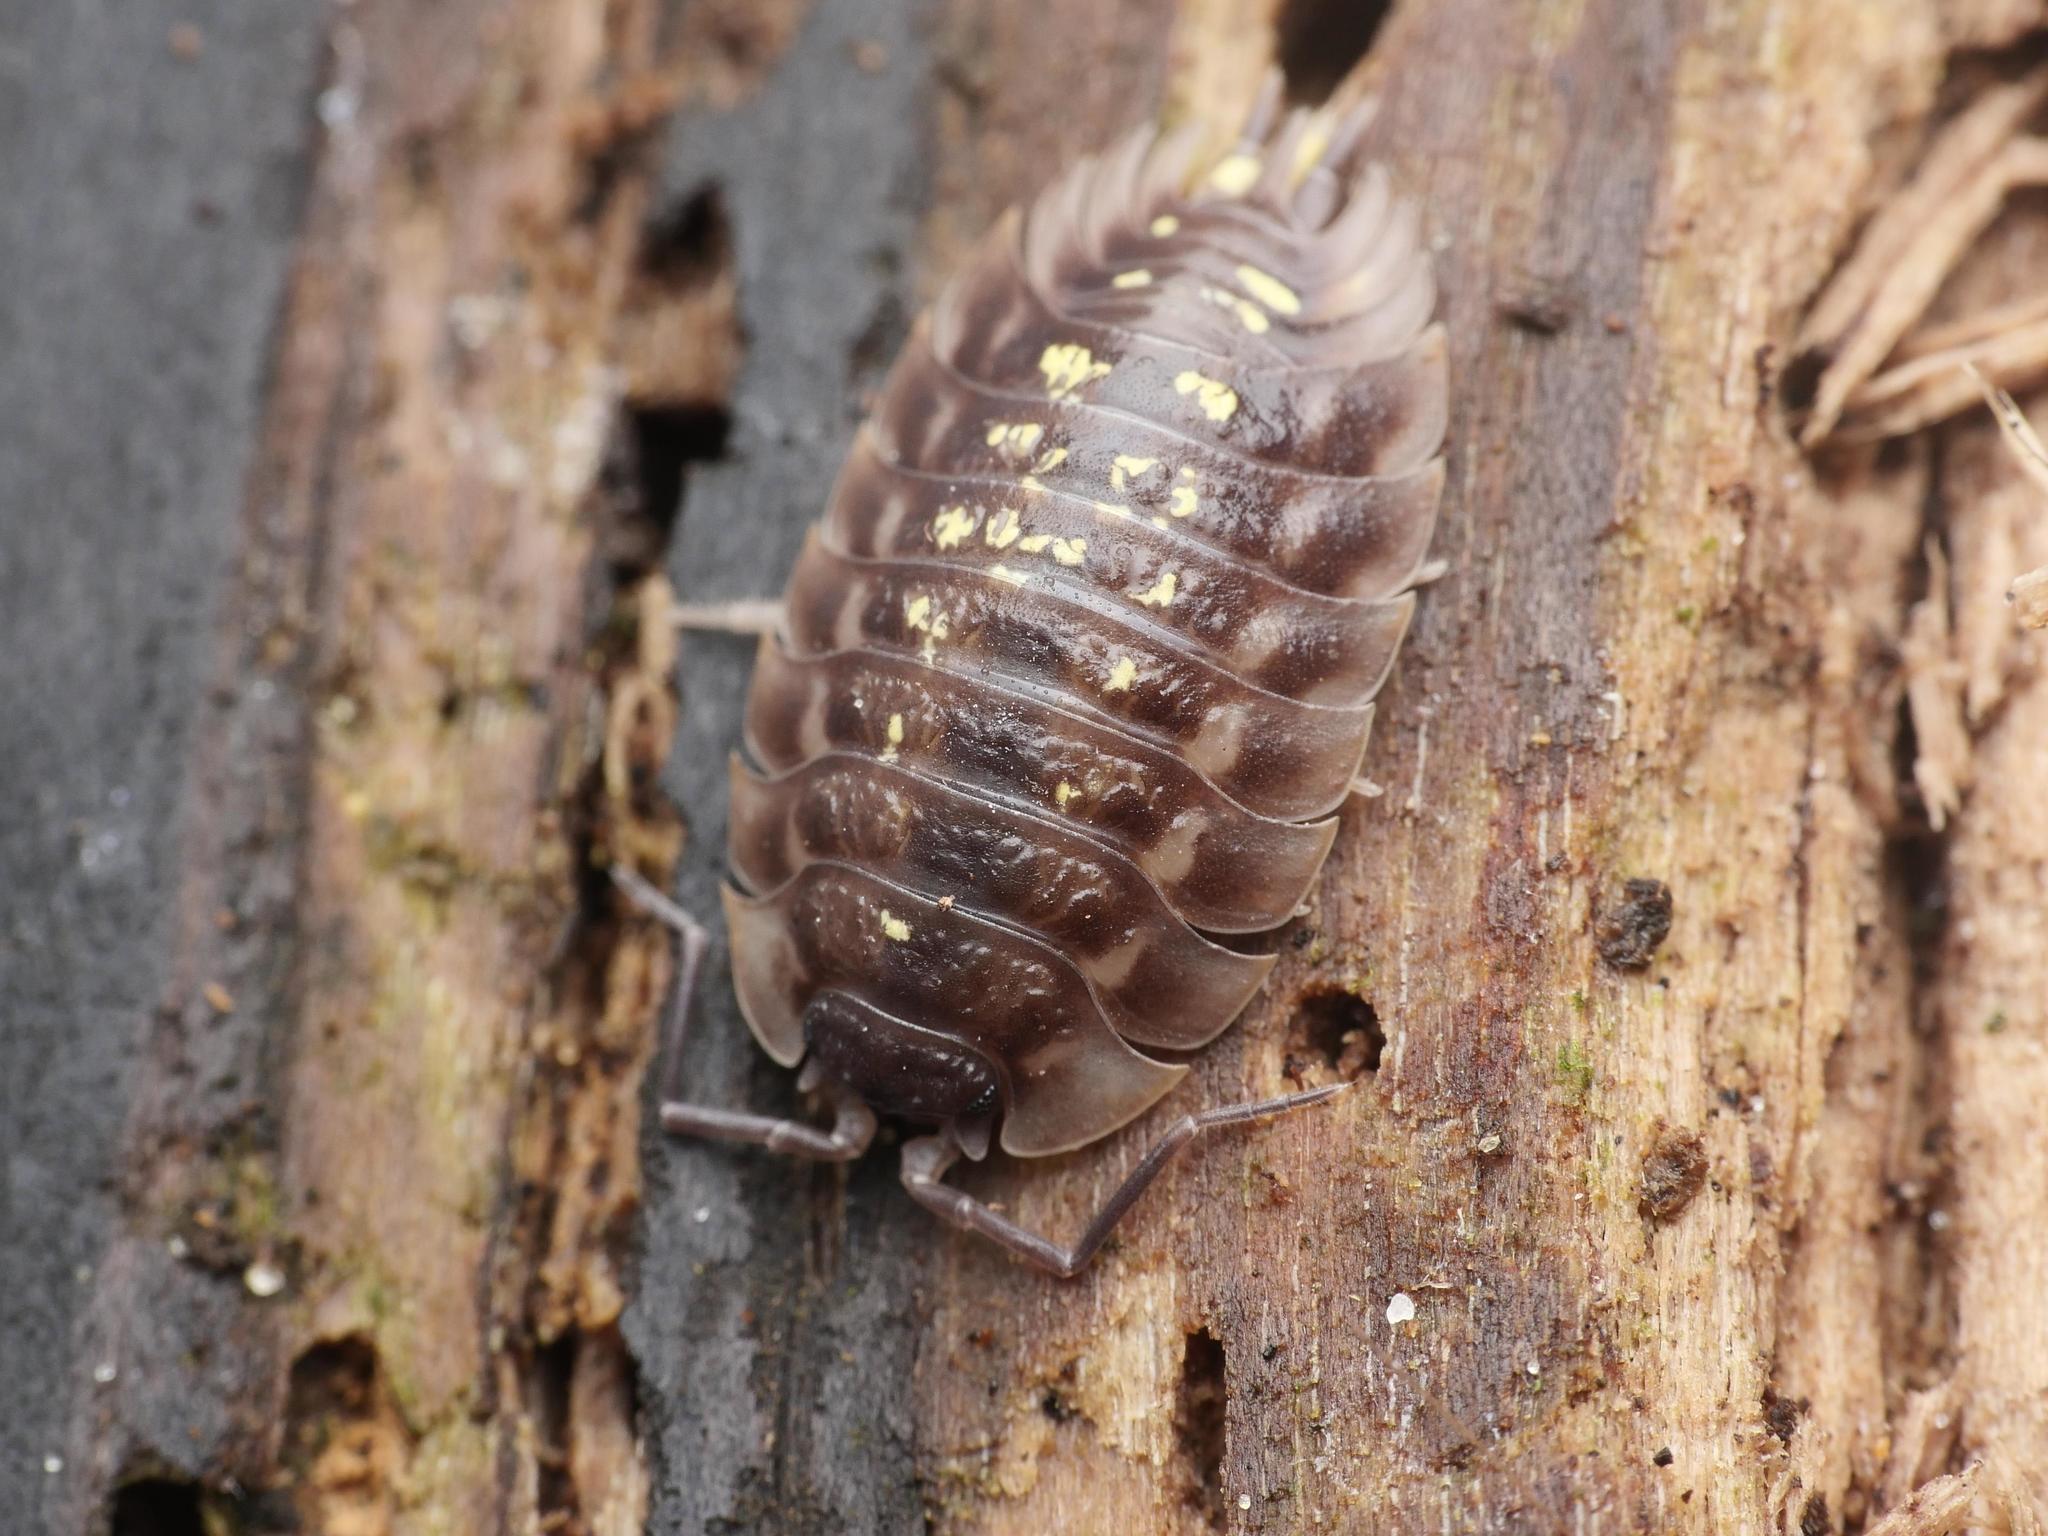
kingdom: Animalia
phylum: Arthropoda
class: Malacostraca
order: Isopoda
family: Oniscidae
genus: Oniscus
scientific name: Oniscus asellus
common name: Common shiny woodlouse
